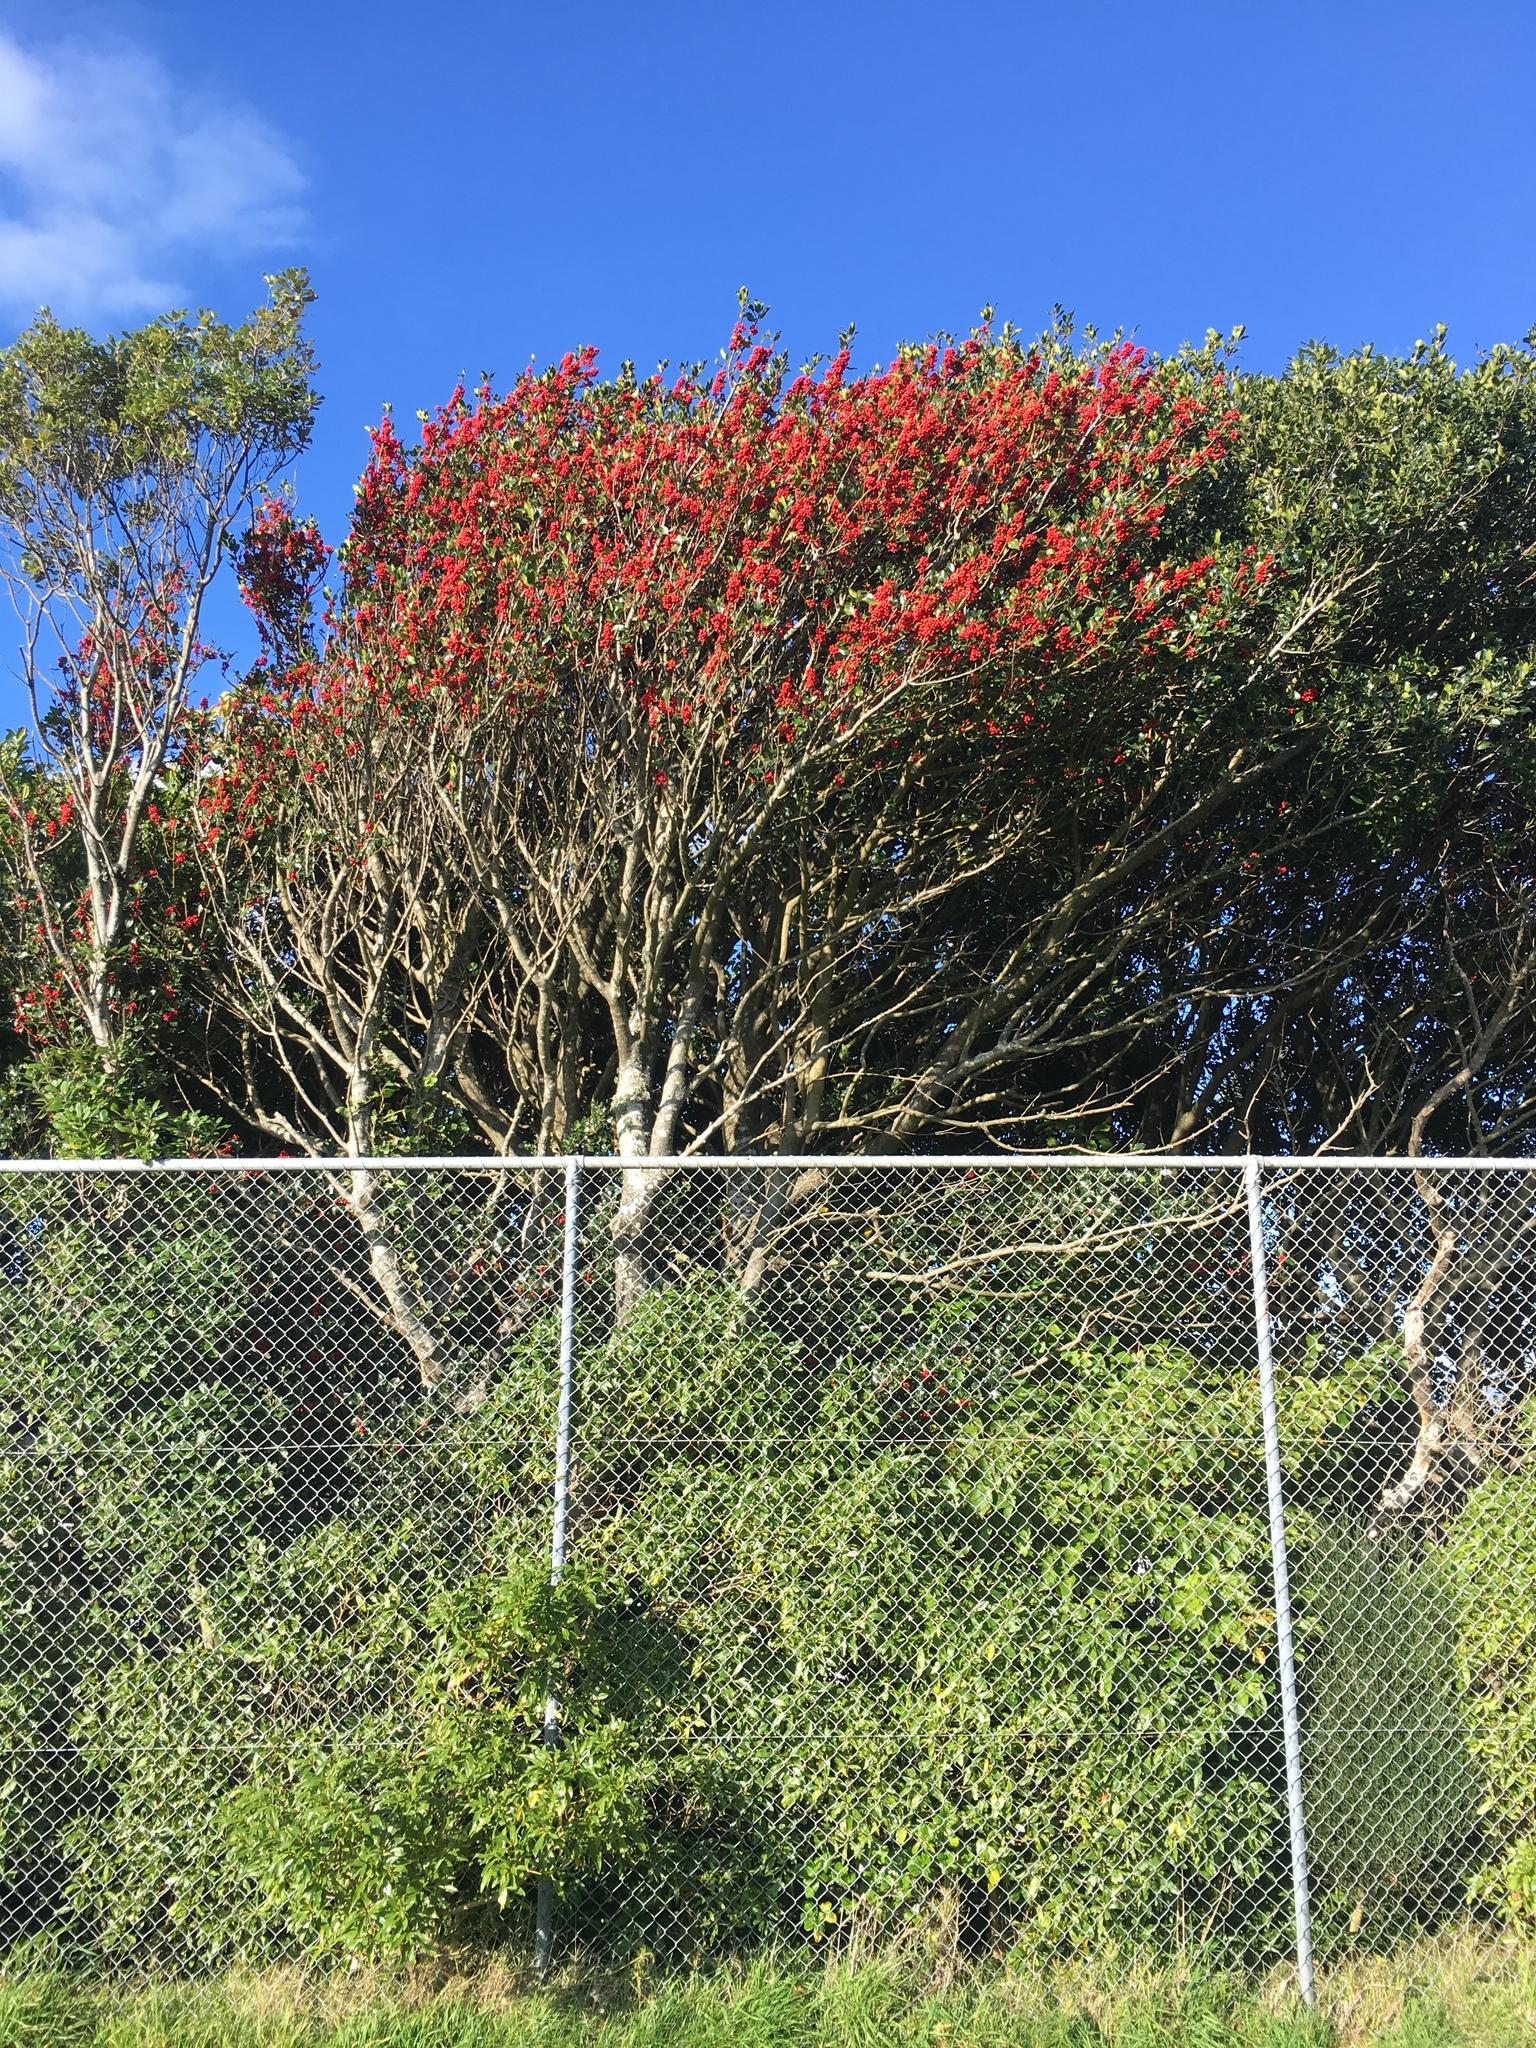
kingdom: Plantae
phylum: Tracheophyta
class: Magnoliopsida
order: Aquifoliales
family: Aquifoliaceae
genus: Ilex
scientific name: Ilex aquifolium
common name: English holly
